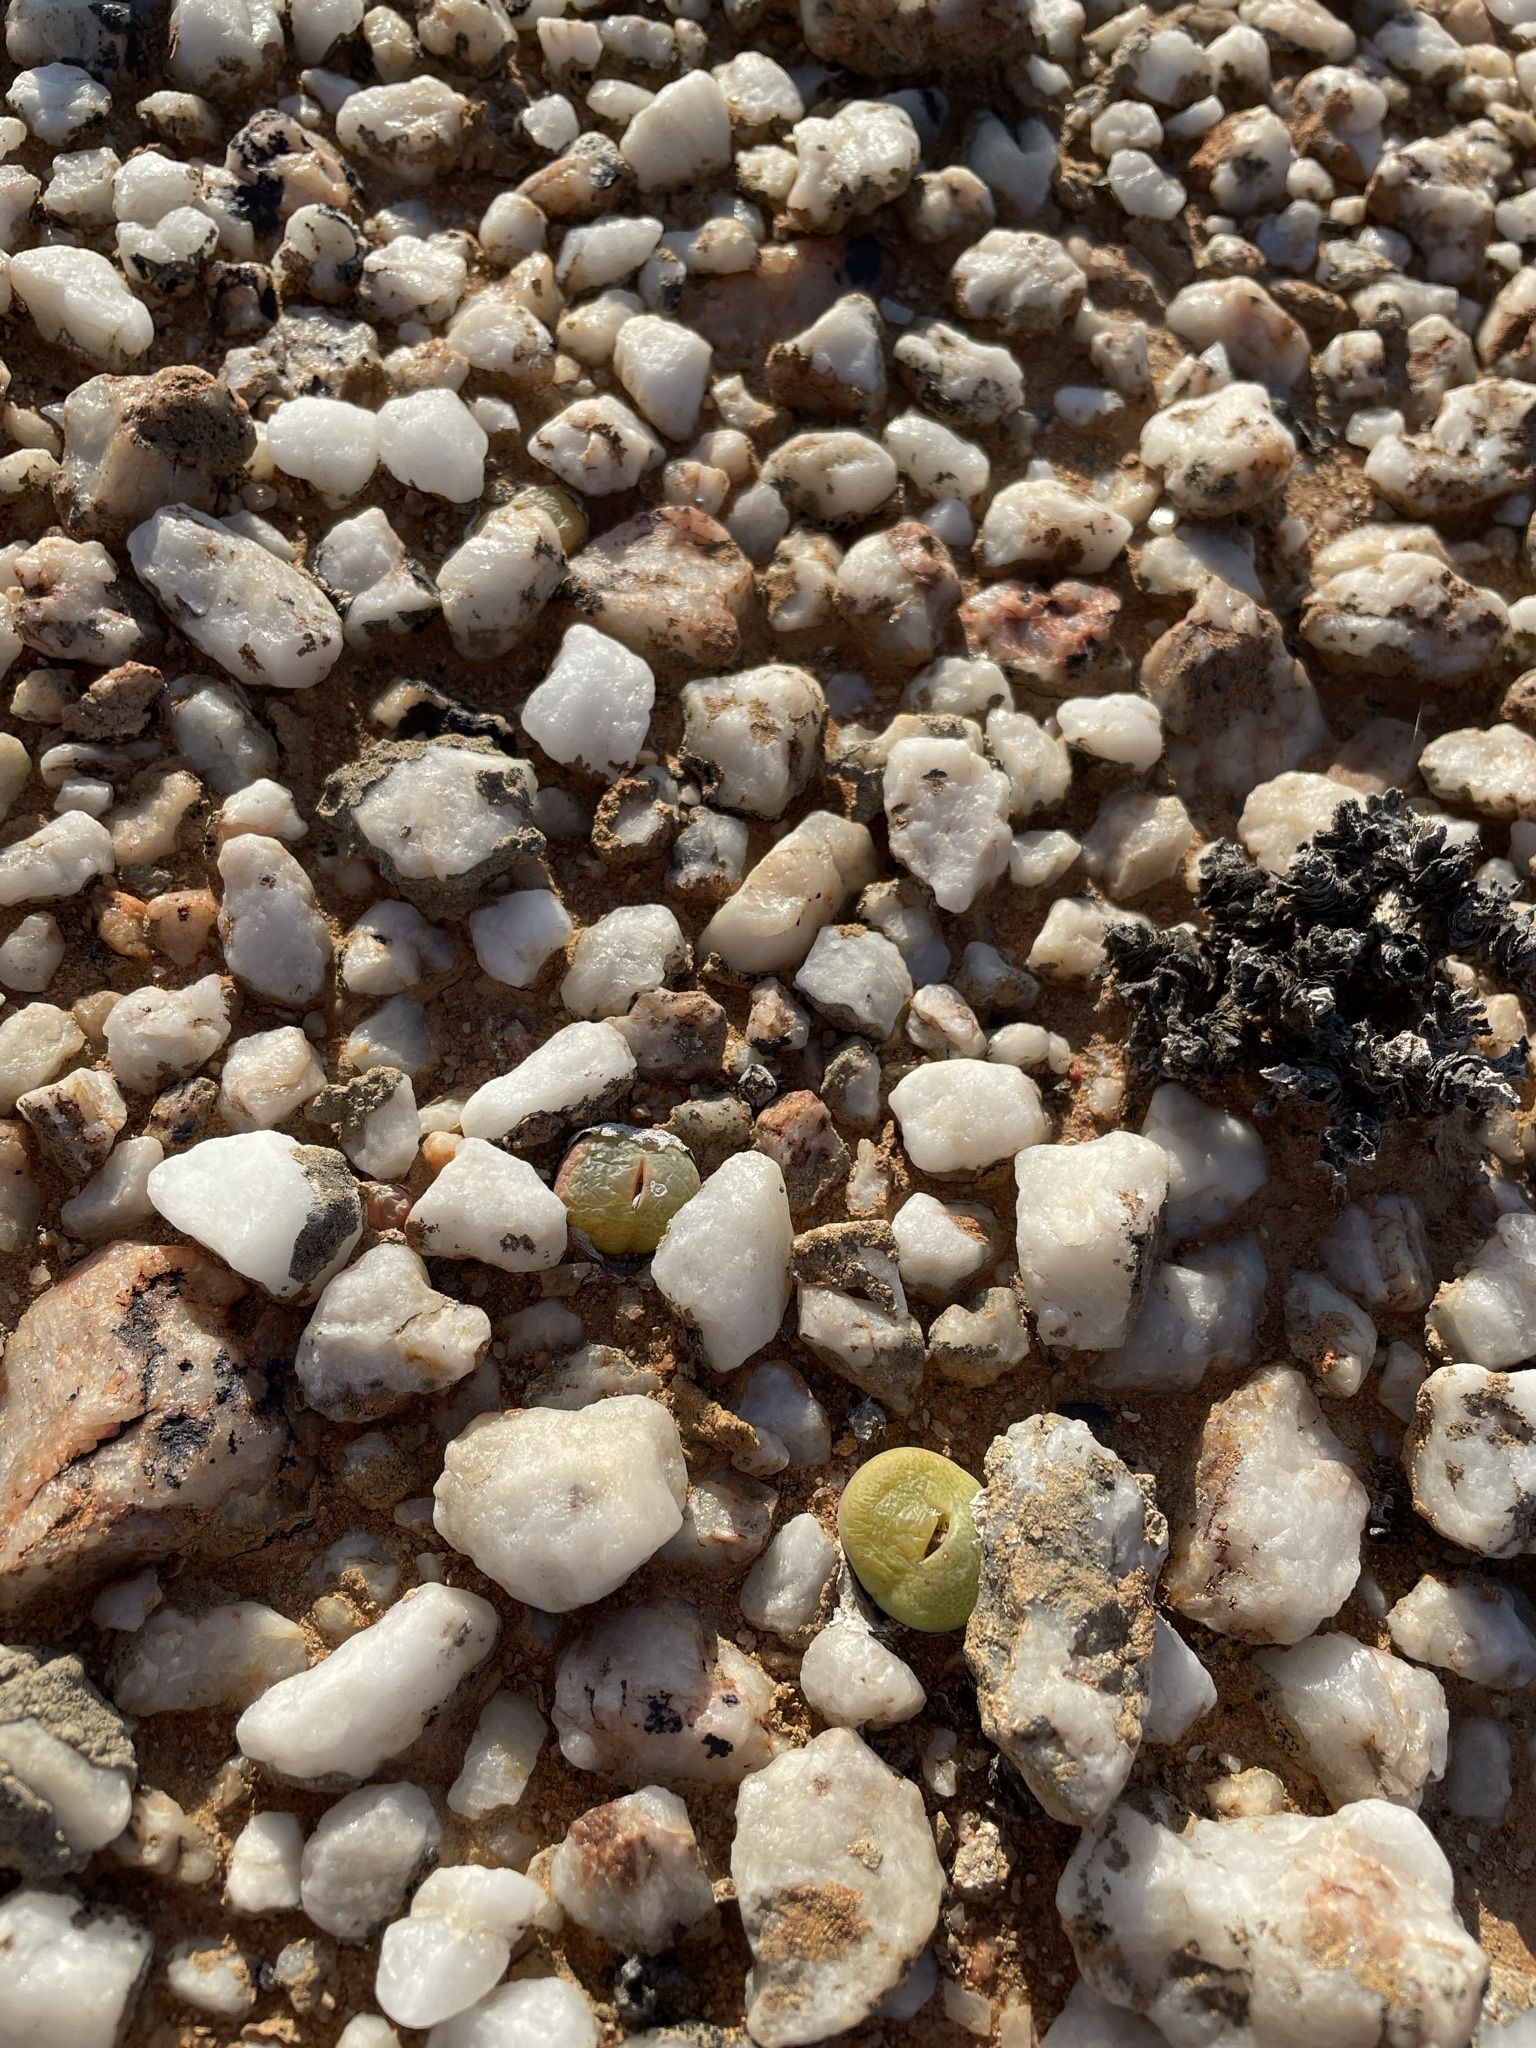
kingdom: Plantae
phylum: Tracheophyta
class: Magnoliopsida
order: Caryophyllales
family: Aizoaceae
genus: Conophytum
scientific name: Conophytum subfenestratum
